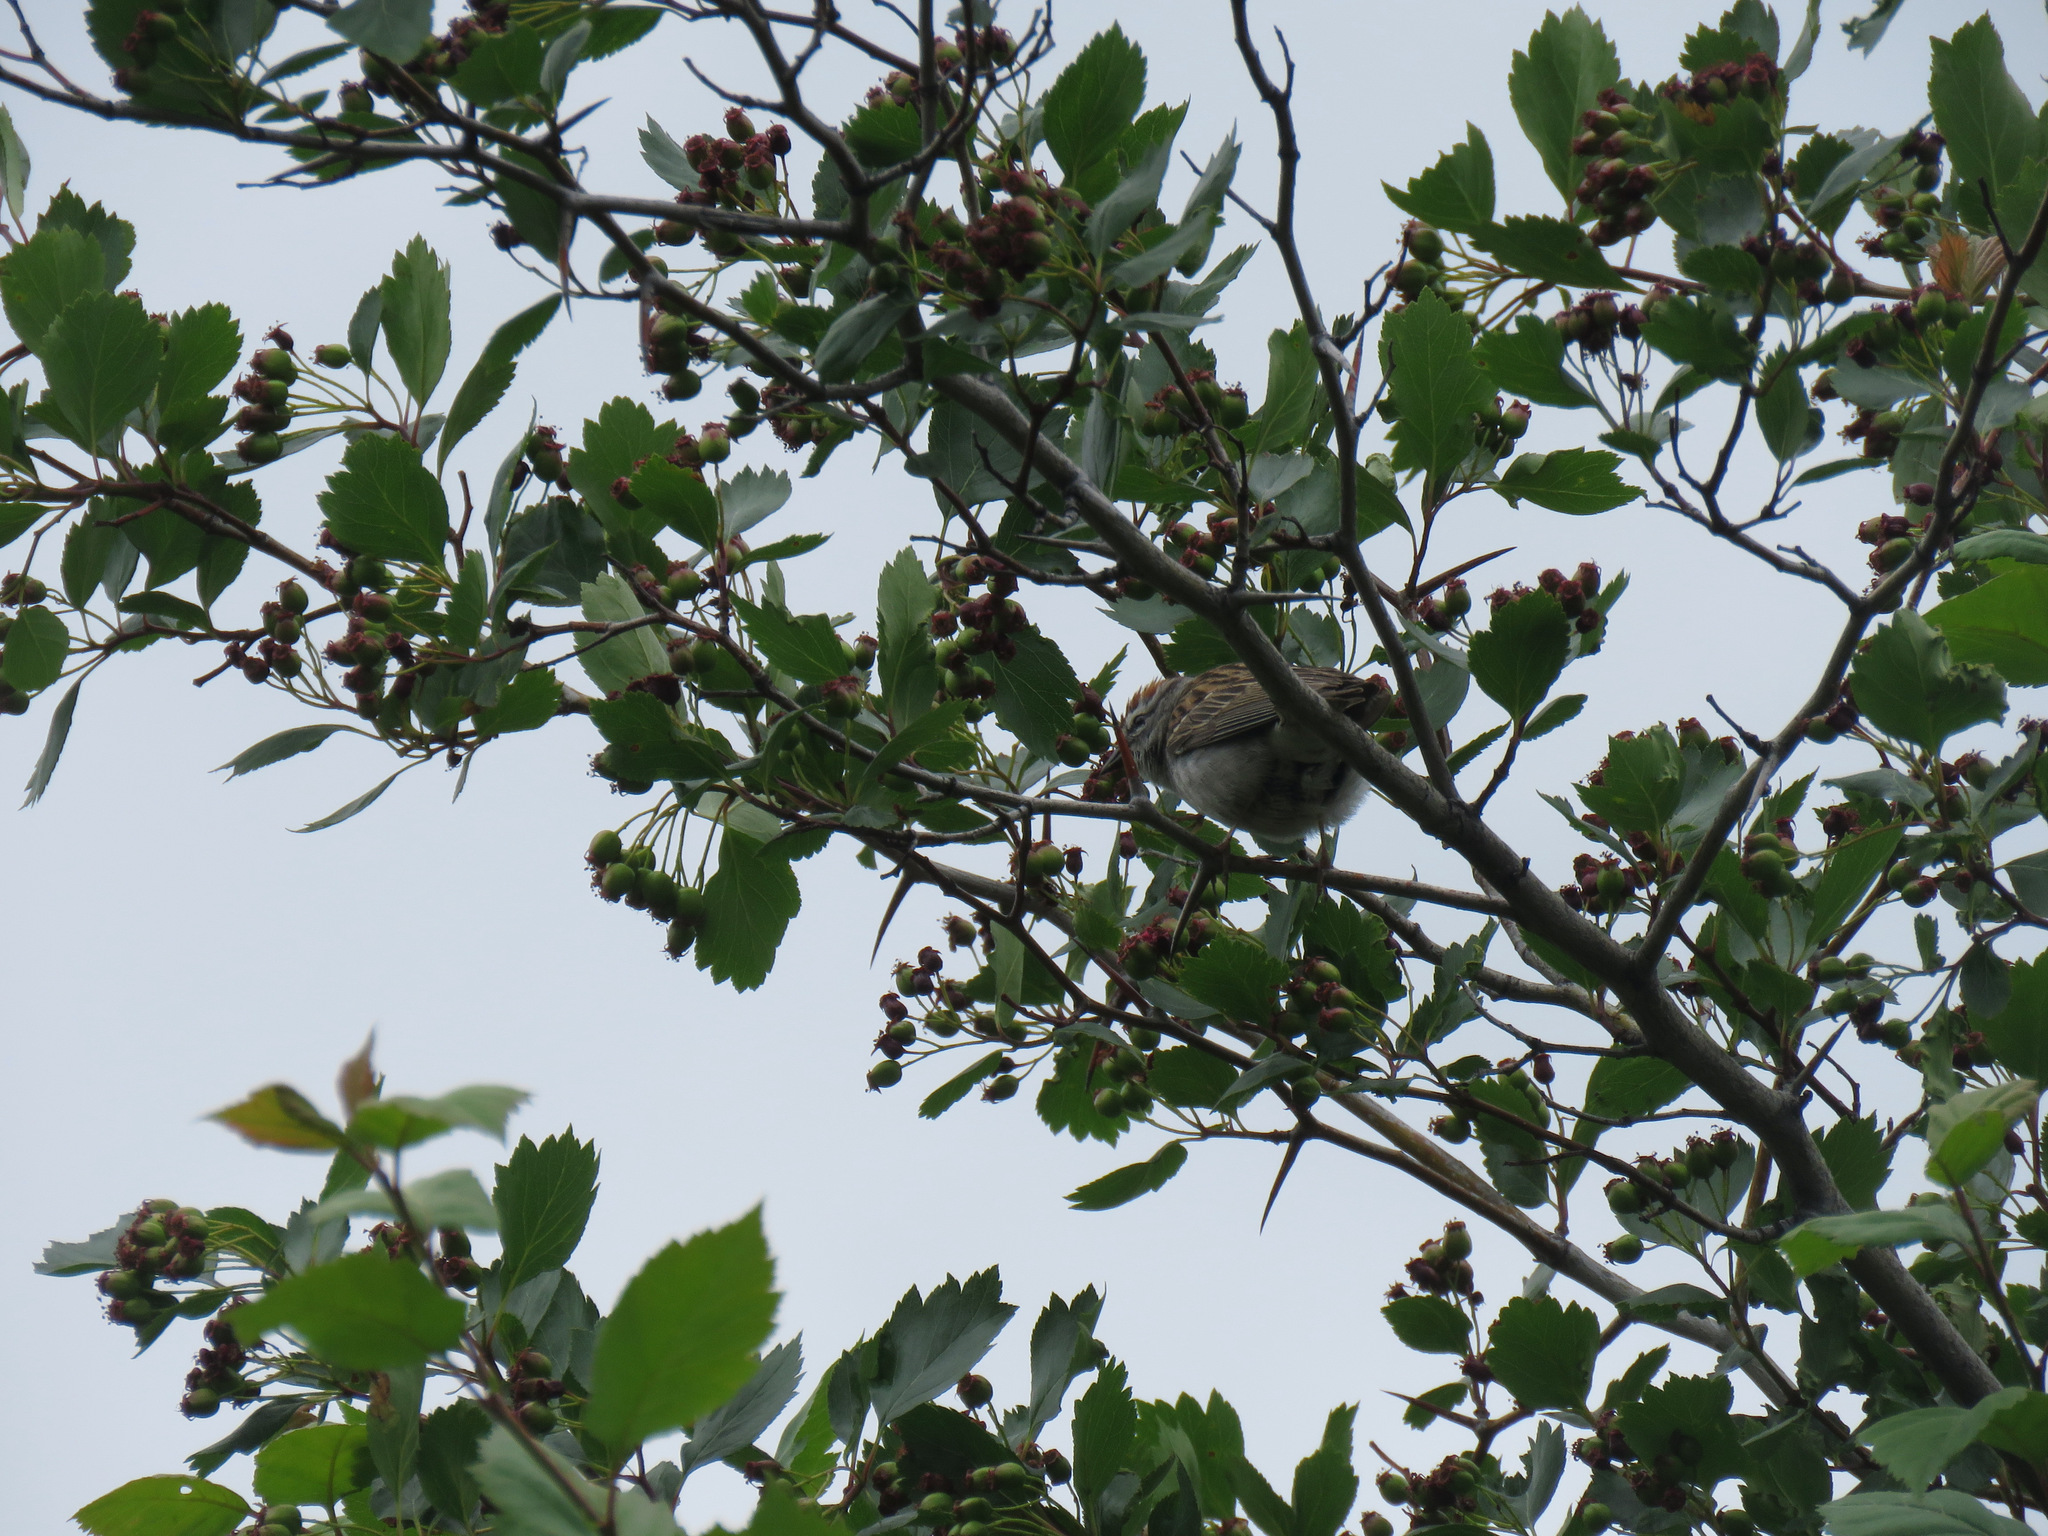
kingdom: Animalia
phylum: Chordata
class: Aves
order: Passeriformes
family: Passerellidae
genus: Spizella
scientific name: Spizella passerina
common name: Chipping sparrow
